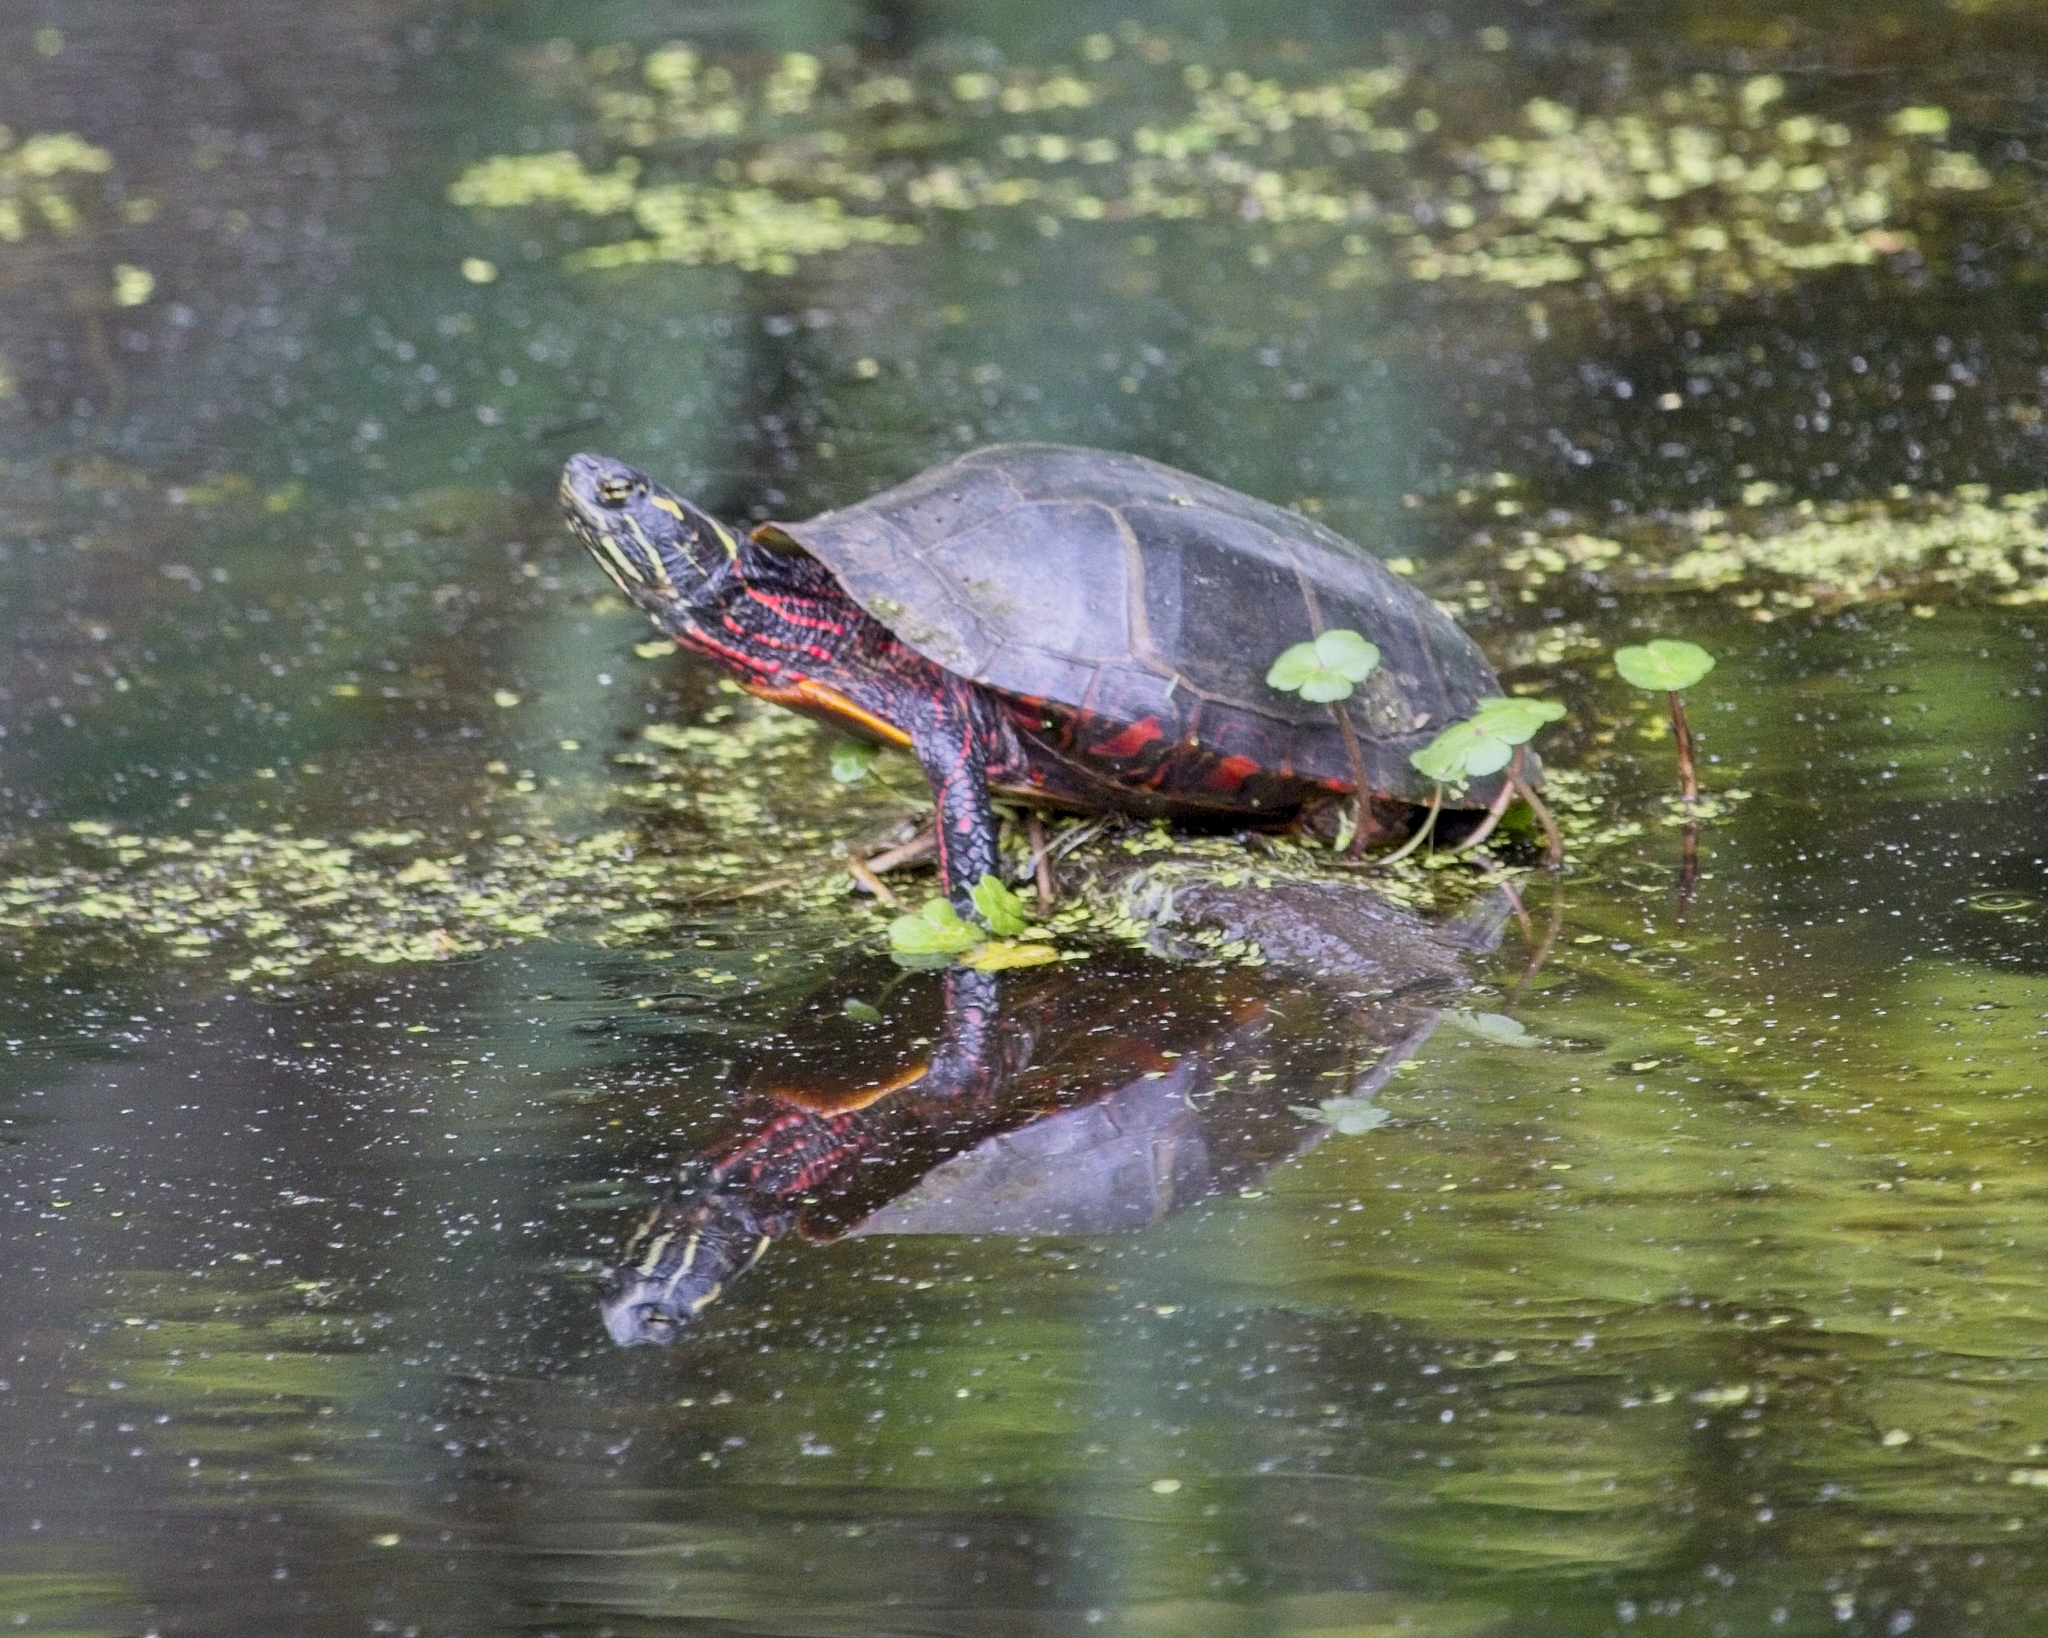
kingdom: Animalia
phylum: Chordata
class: Testudines
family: Emydidae
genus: Chrysemys
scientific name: Chrysemys picta
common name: Painted turtle
